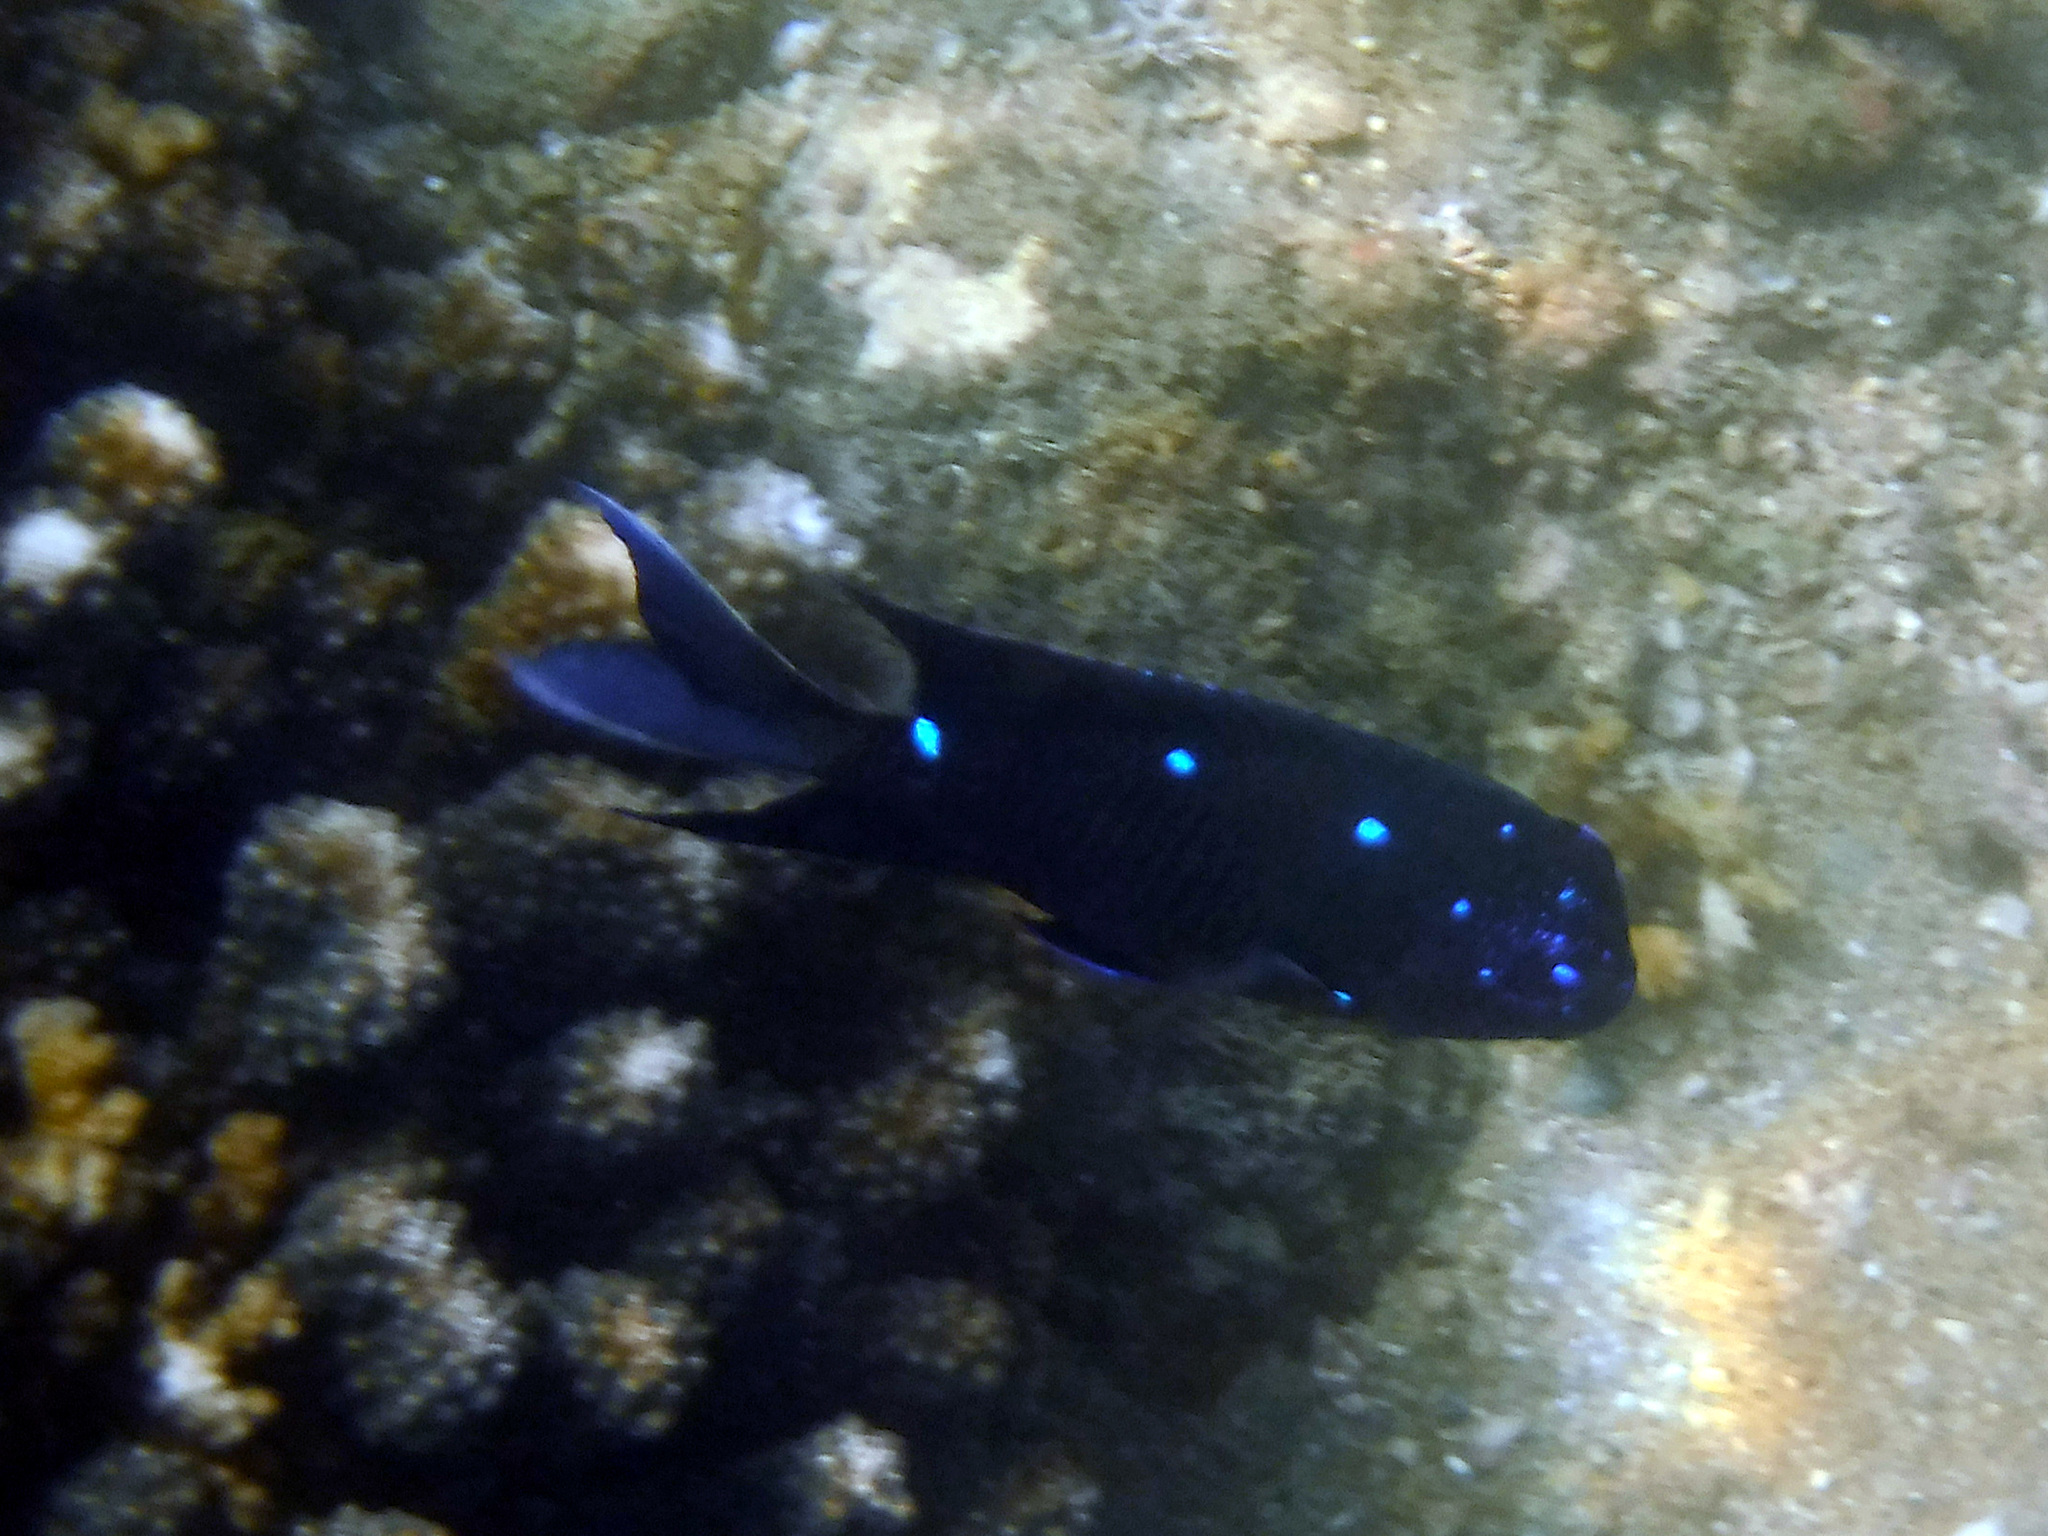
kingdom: Animalia
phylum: Chordata
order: Perciformes
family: Pomacentridae
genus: Microspathodon
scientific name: Microspathodon dorsalis
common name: Giant damselfish
